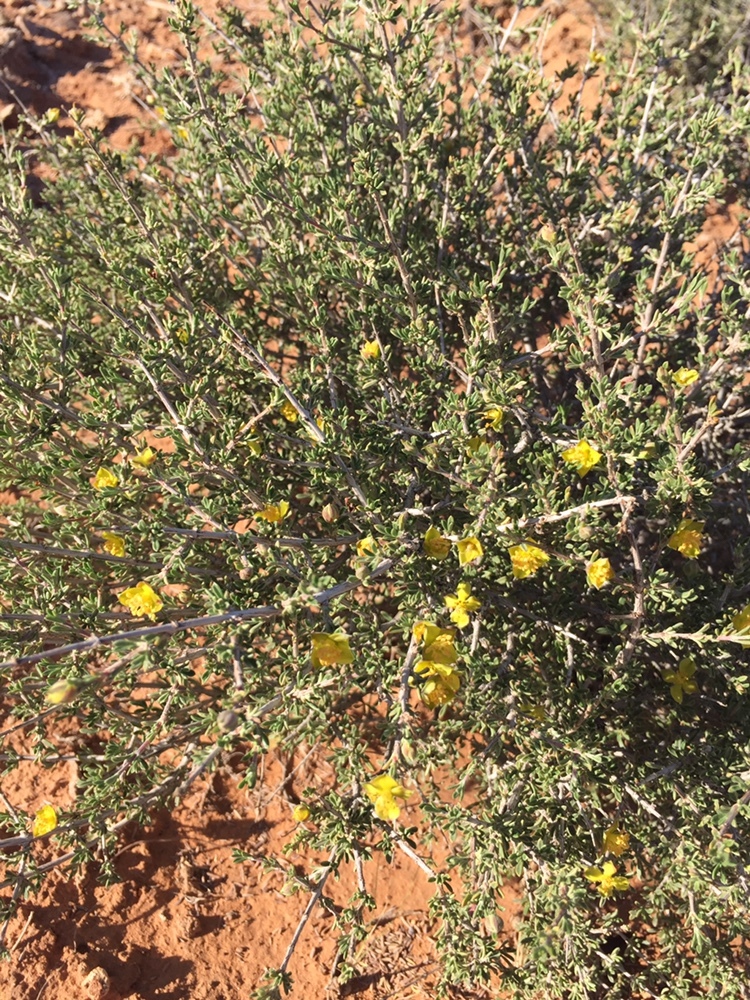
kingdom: Plantae
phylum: Tracheophyta
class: Magnoliopsida
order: Rosales
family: Rosaceae
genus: Coleogyne
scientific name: Coleogyne ramosissima
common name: Blackbrush
